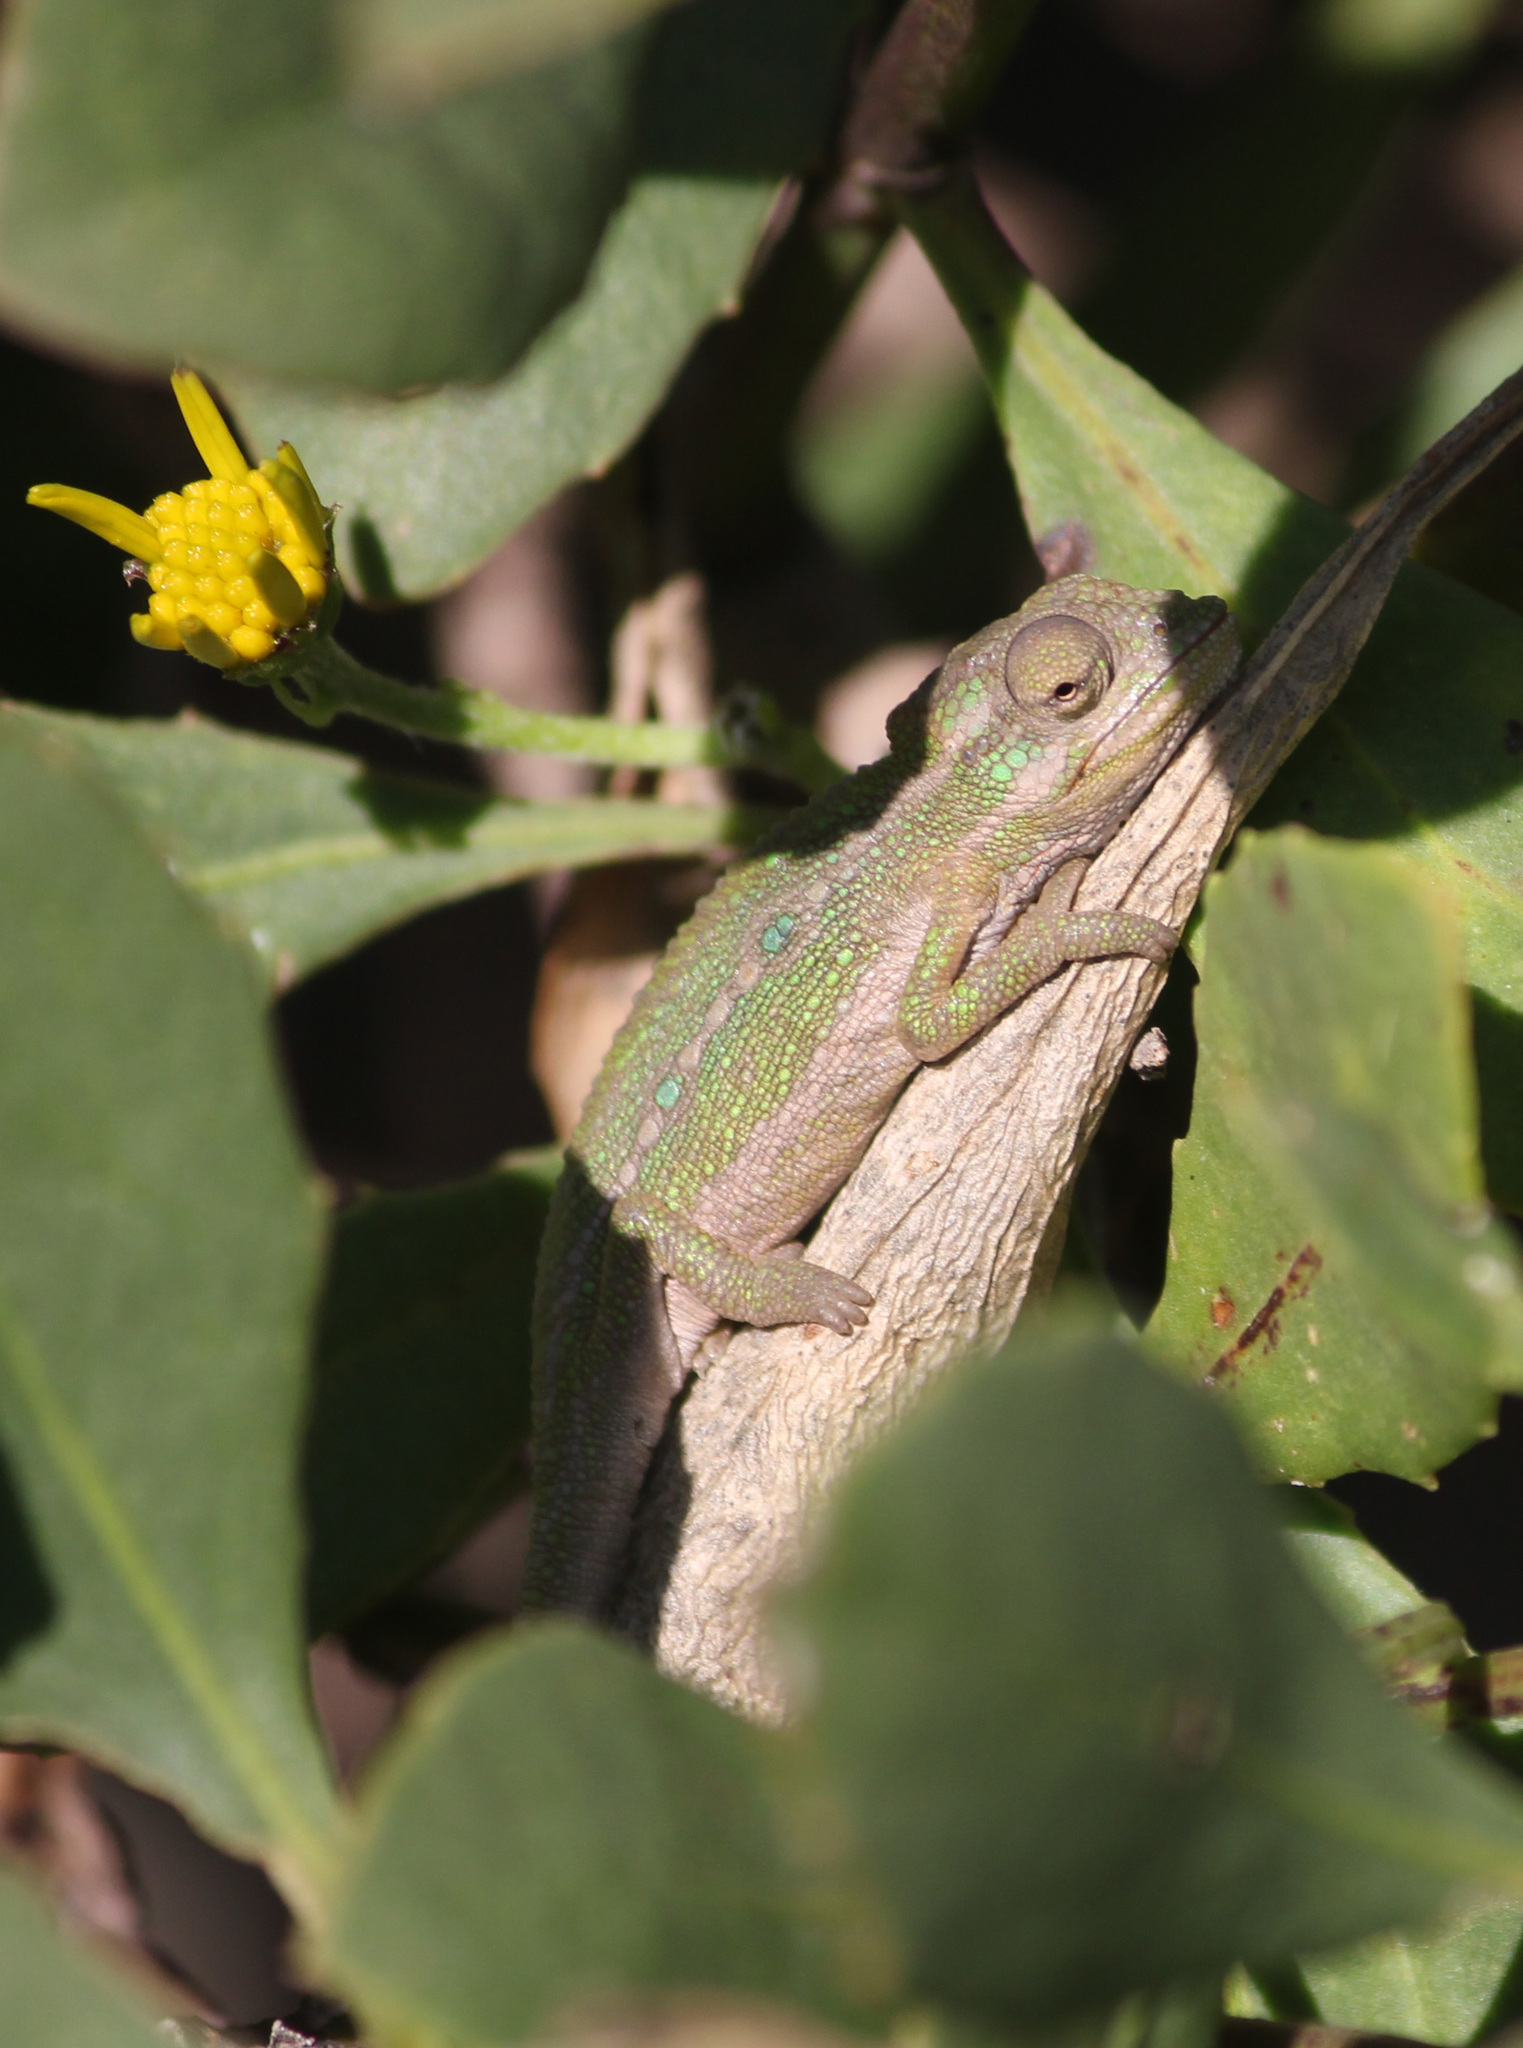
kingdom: Animalia
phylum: Chordata
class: Squamata
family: Chamaeleonidae
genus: Bradypodion
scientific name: Bradypodion pumilum
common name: Cape dwarf chameleon
